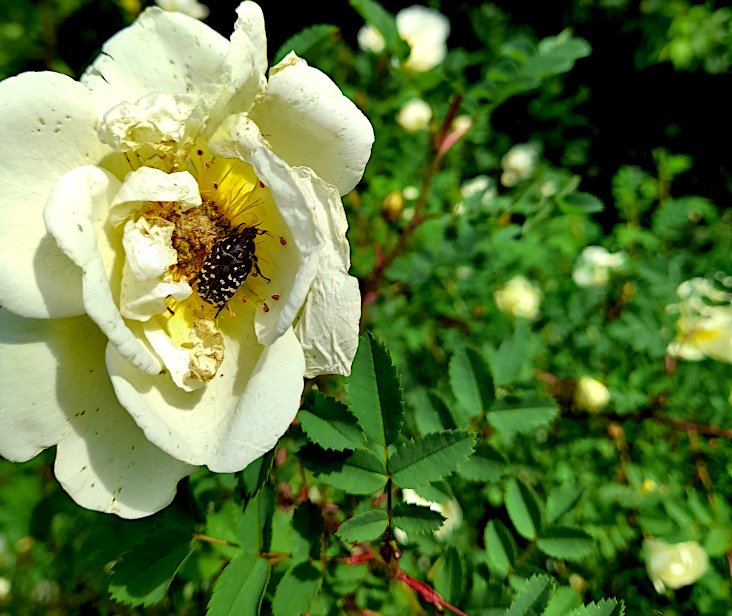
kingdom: Animalia
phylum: Arthropoda
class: Insecta
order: Coleoptera
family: Scarabaeidae
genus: Oxythyrea
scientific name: Oxythyrea funesta
